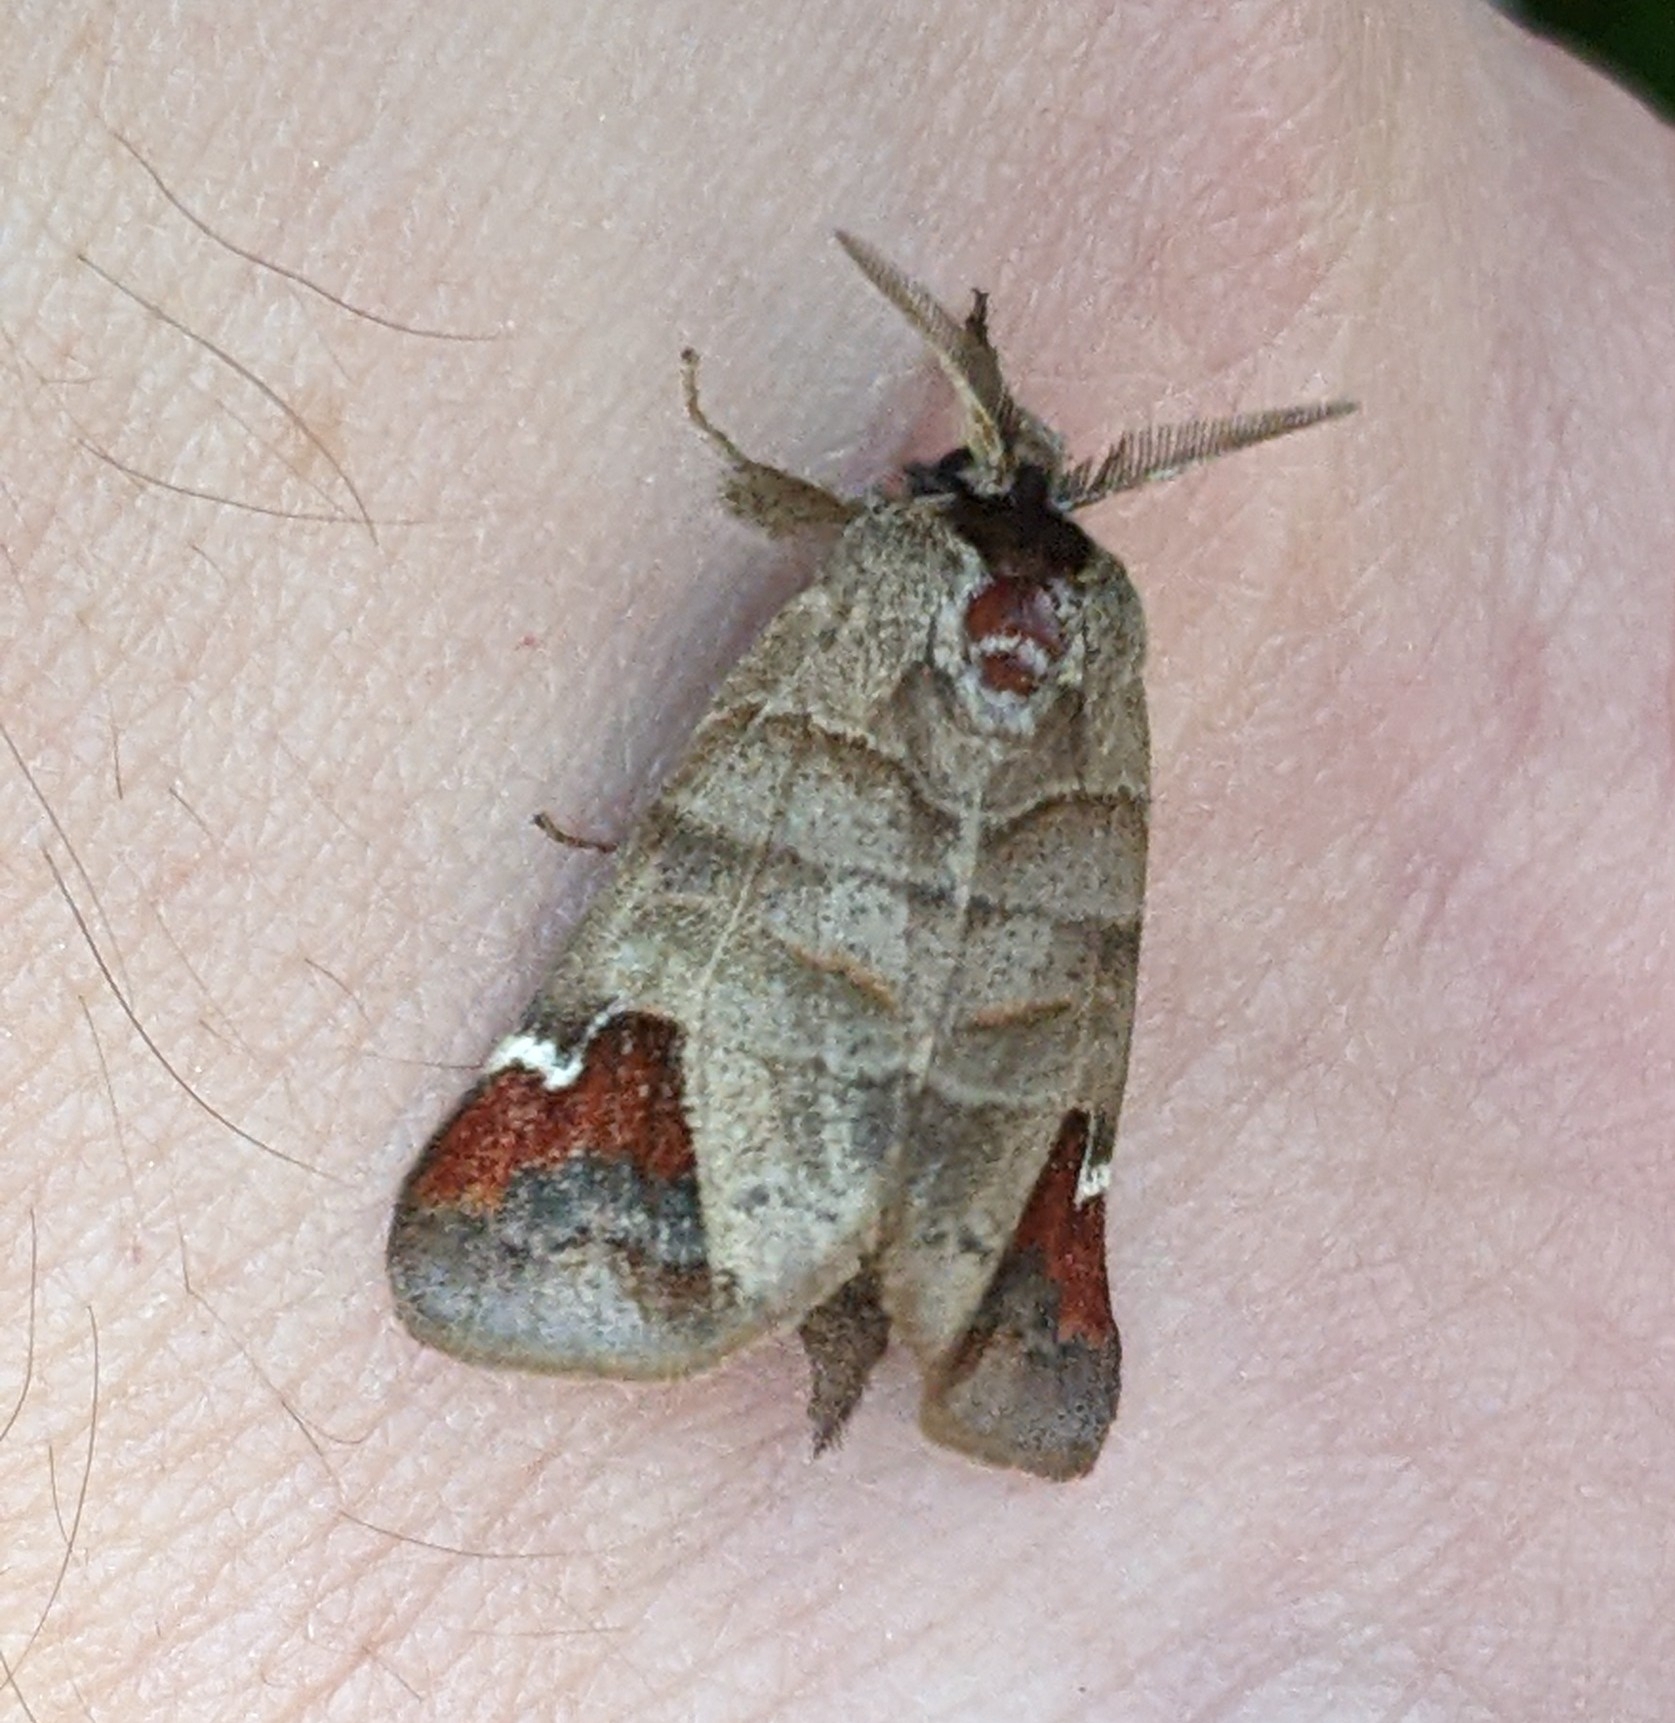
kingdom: Animalia
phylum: Arthropoda
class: Insecta
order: Lepidoptera
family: Notodontidae
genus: Clostera
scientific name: Clostera albosigma
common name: Sigmoid prominent
